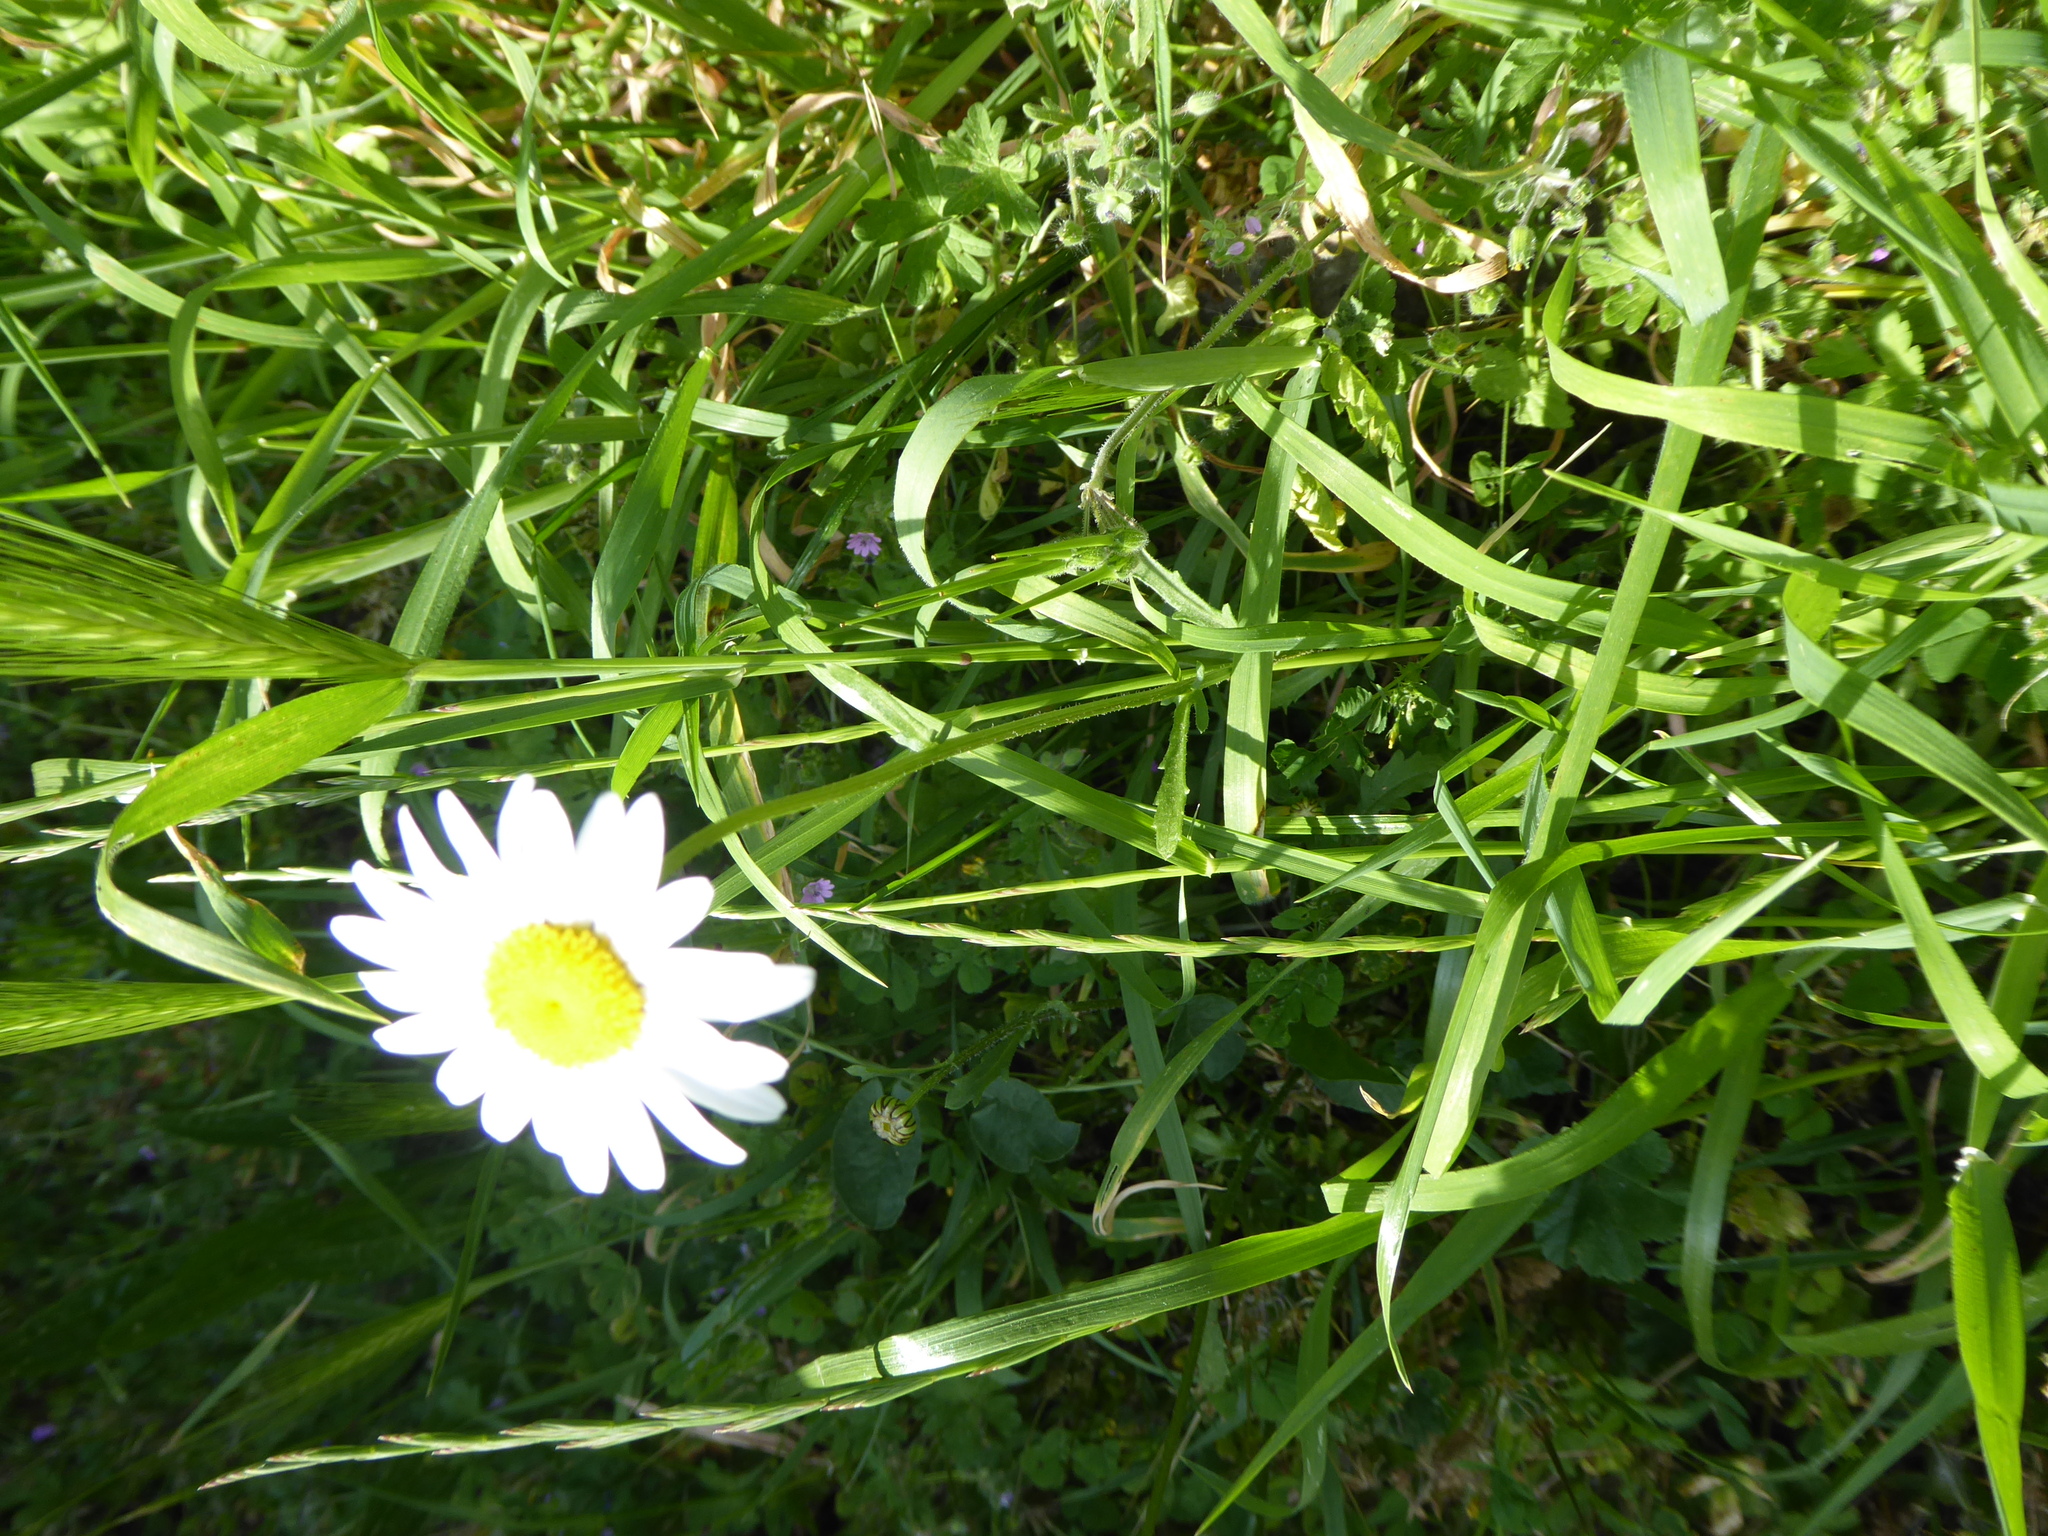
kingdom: Plantae
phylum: Tracheophyta
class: Magnoliopsida
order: Asterales
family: Asteraceae
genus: Leucanthemum
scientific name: Leucanthemum vulgare
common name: Oxeye daisy
